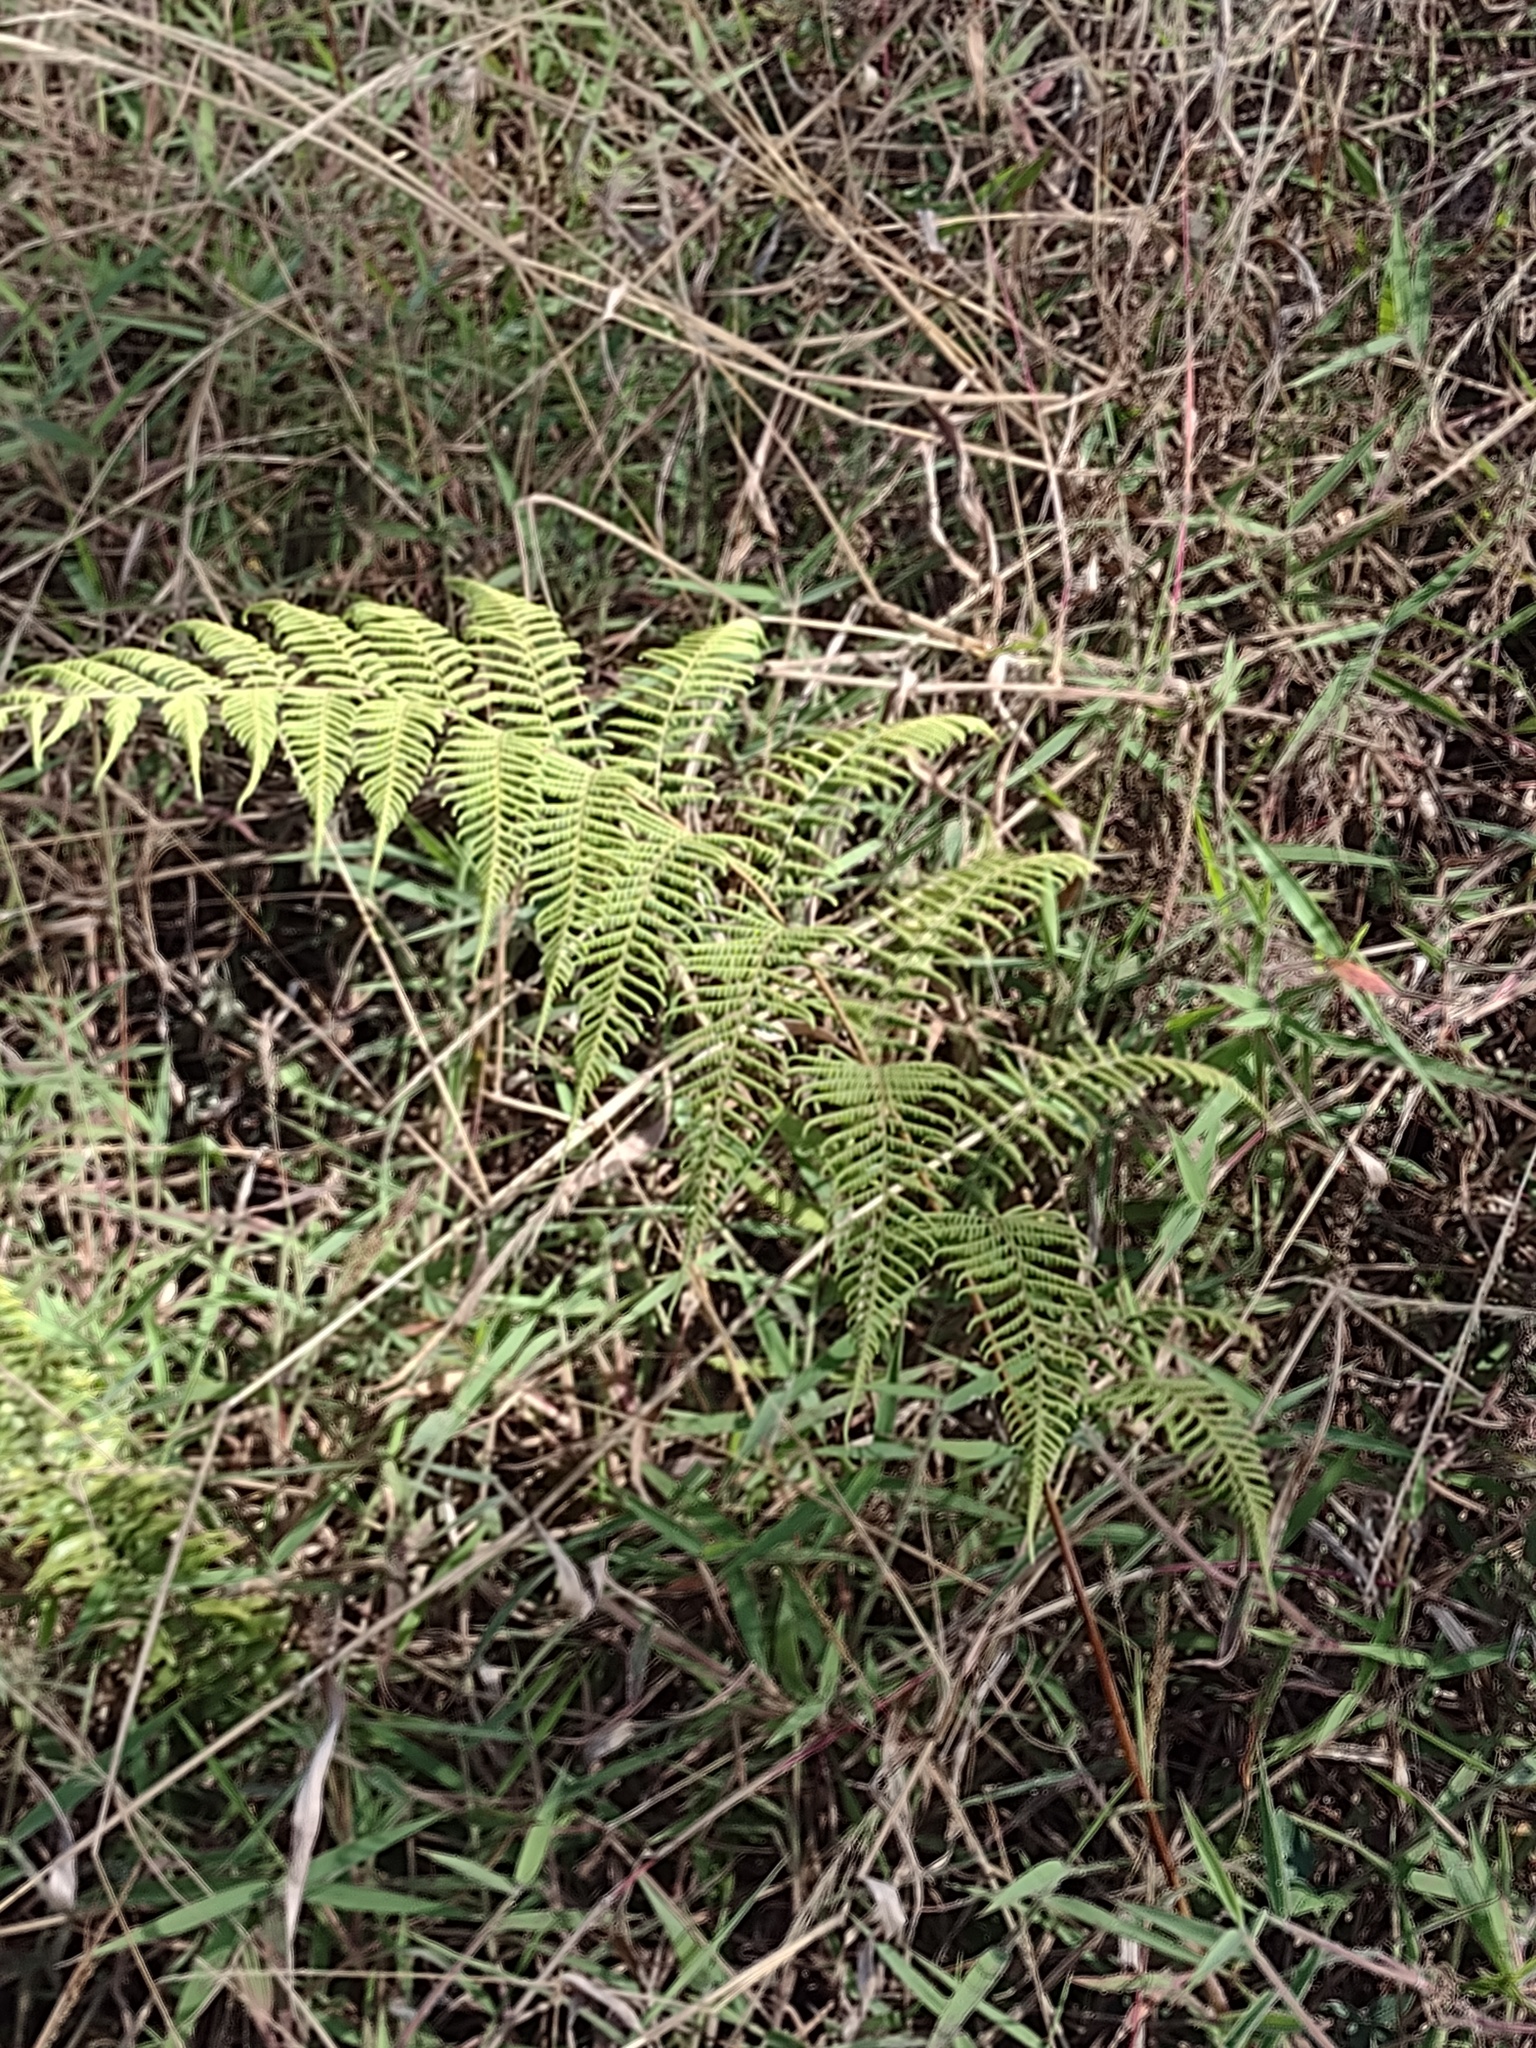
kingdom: Plantae
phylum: Tracheophyta
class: Polypodiopsida
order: Polypodiales
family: Dennstaedtiaceae
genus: Pteridium
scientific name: Pteridium aquilinum
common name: Bracken
